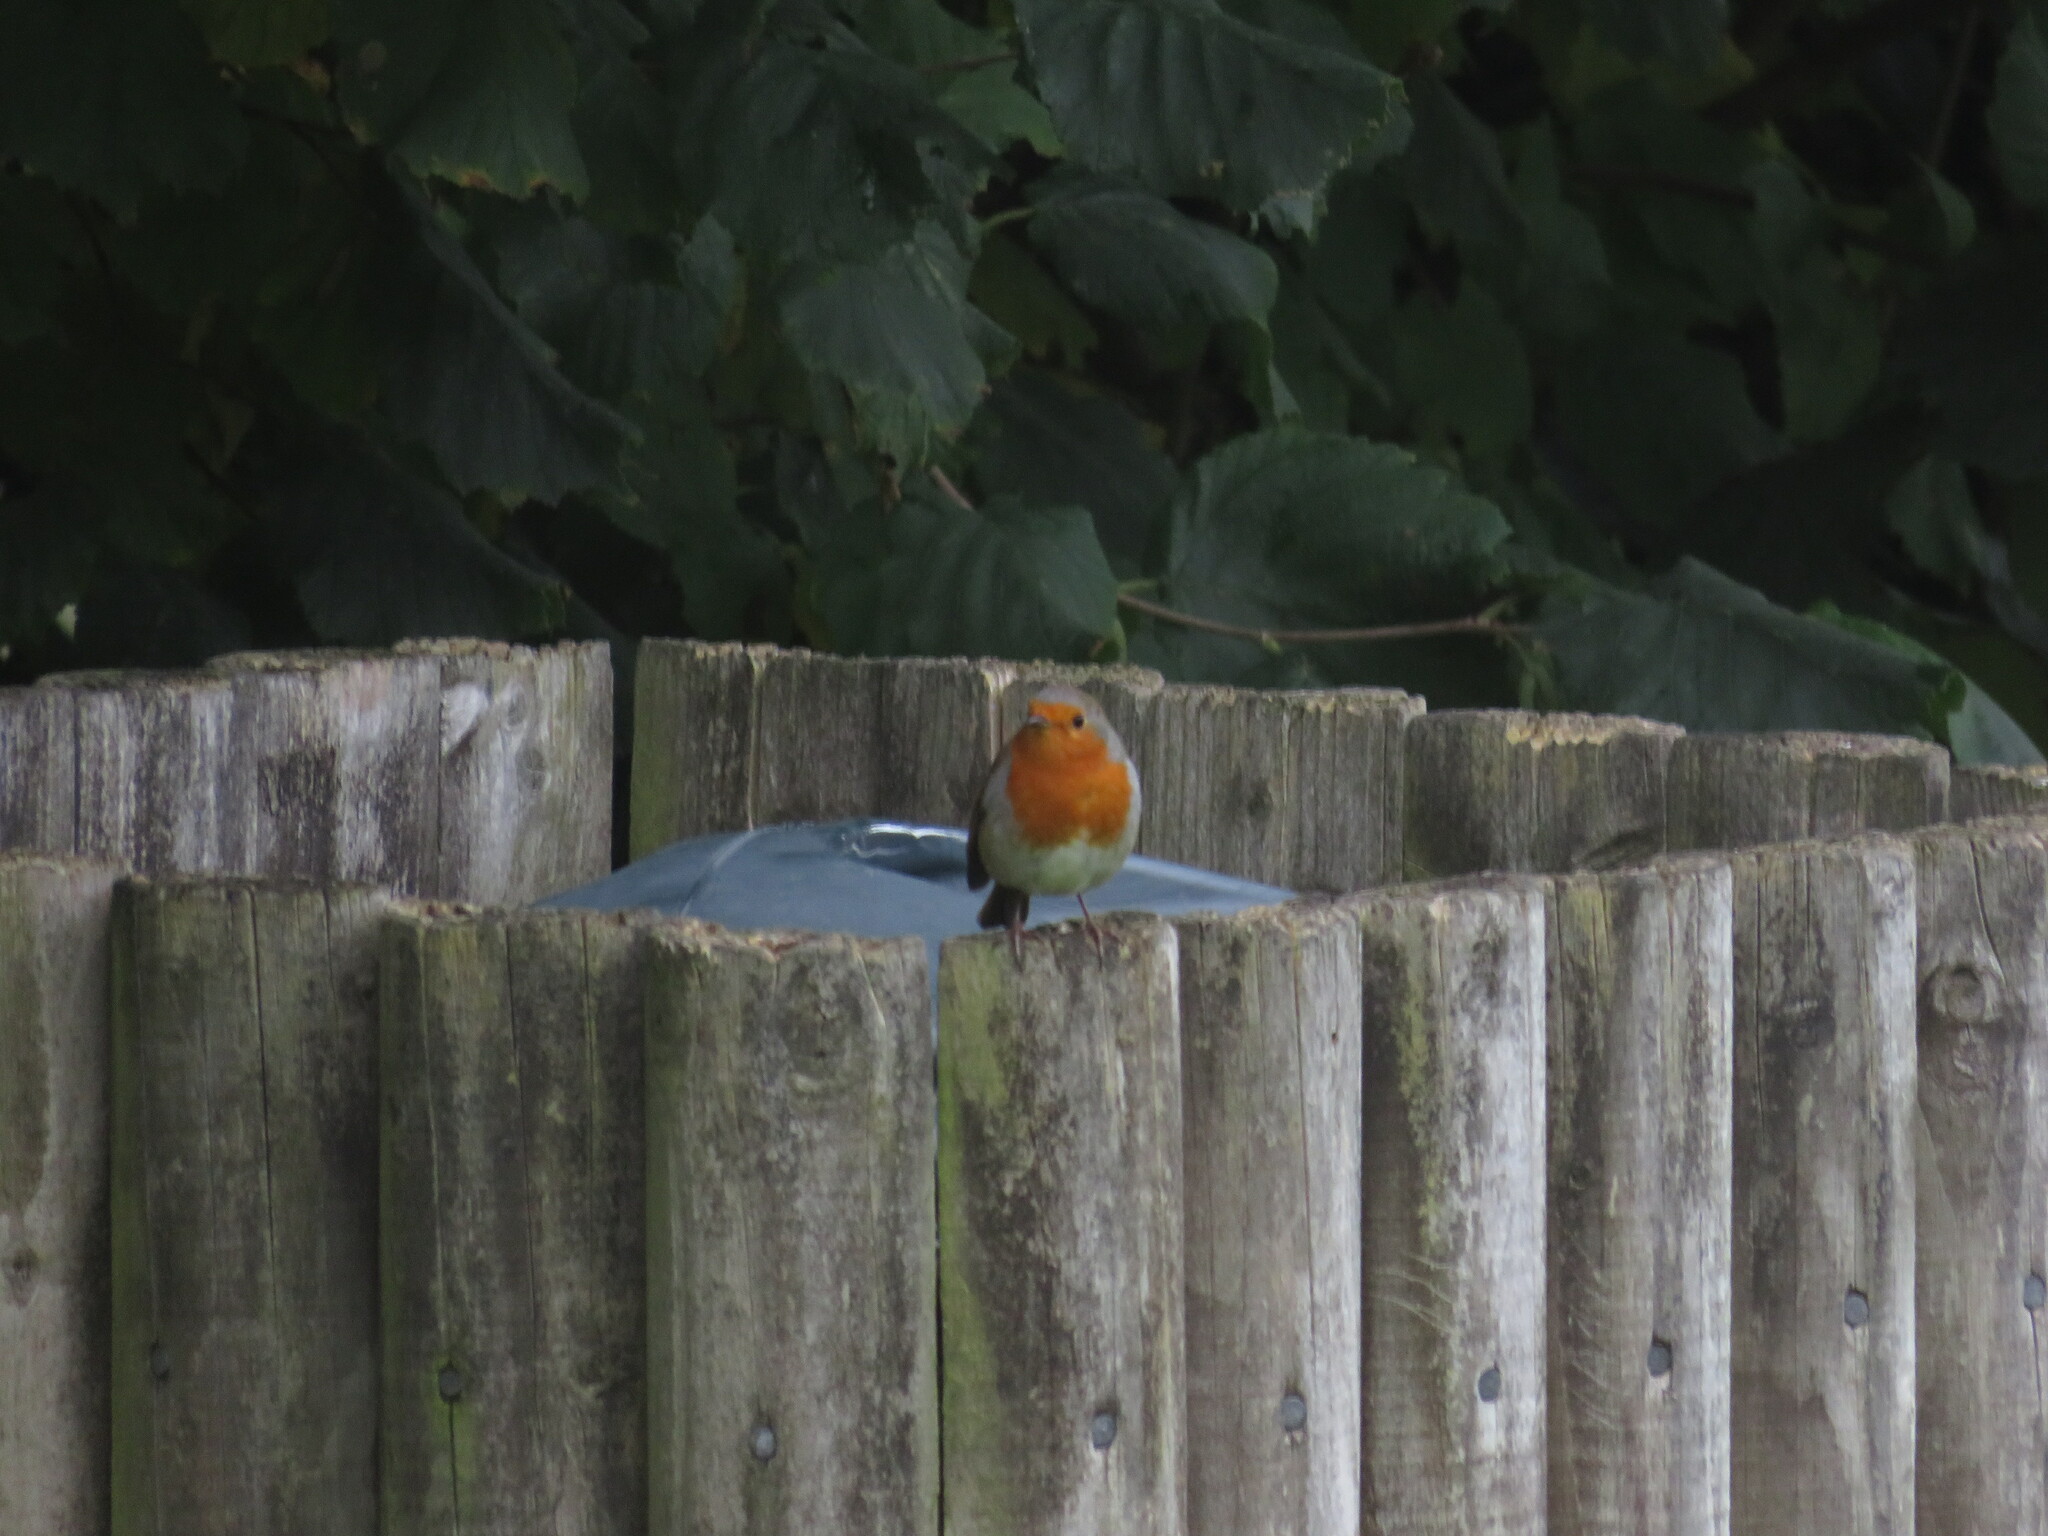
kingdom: Animalia
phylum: Chordata
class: Aves
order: Passeriformes
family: Muscicapidae
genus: Erithacus
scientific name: Erithacus rubecula
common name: European robin
